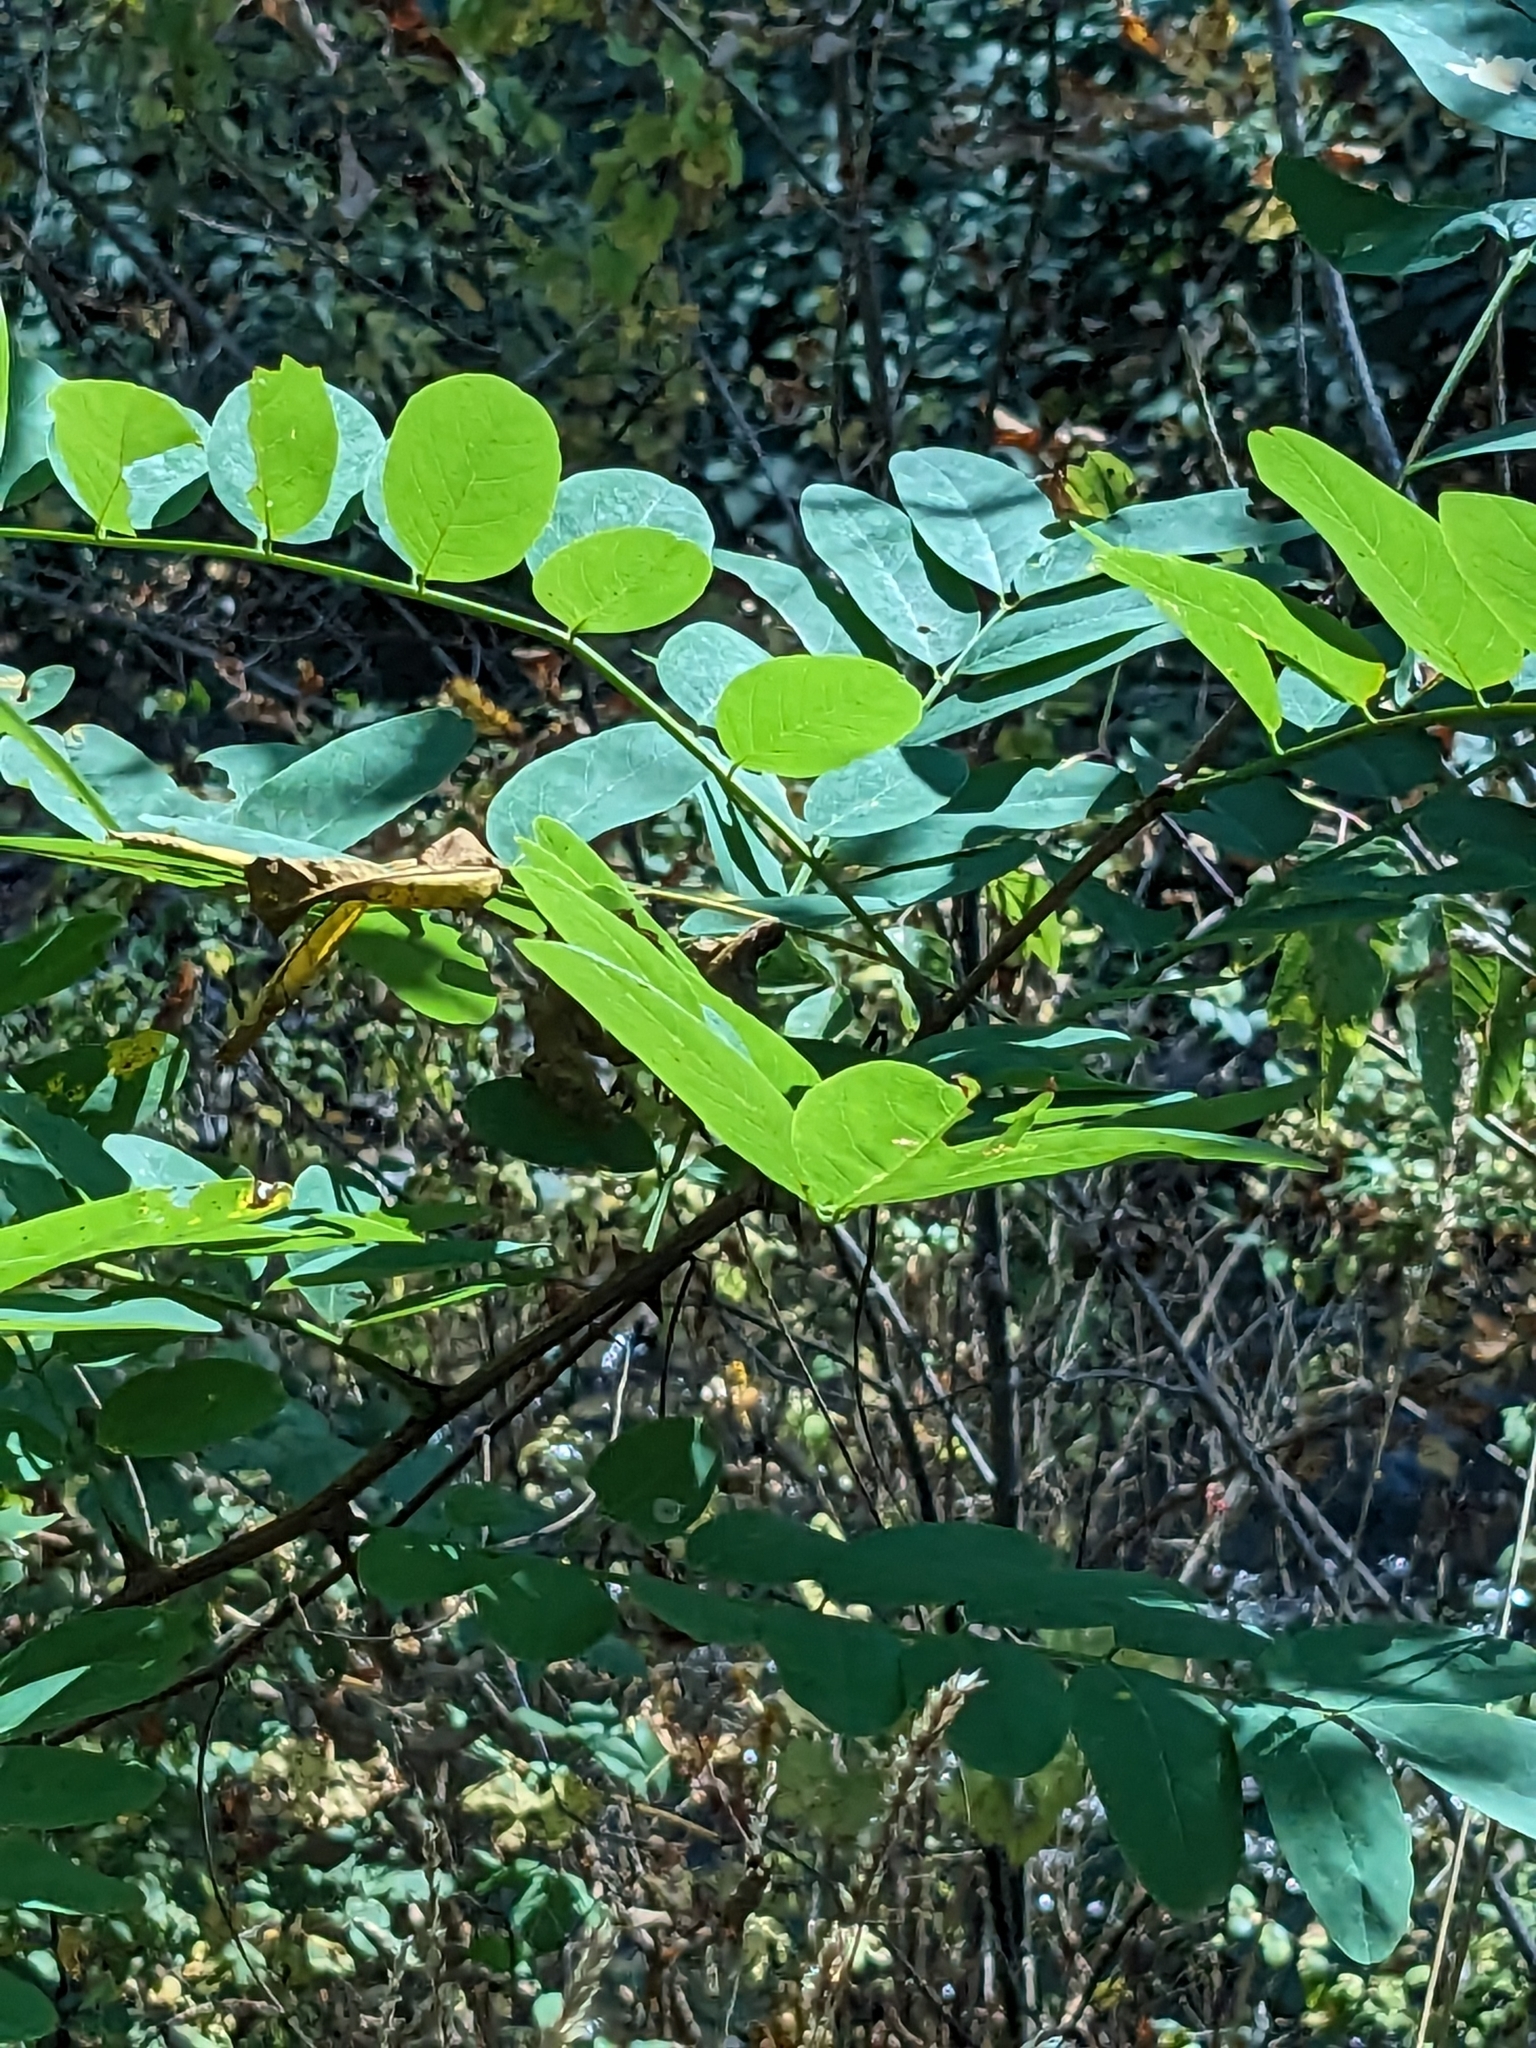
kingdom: Plantae
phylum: Tracheophyta
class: Magnoliopsida
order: Fabales
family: Fabaceae
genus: Robinia
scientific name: Robinia pseudoacacia
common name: Black locust
